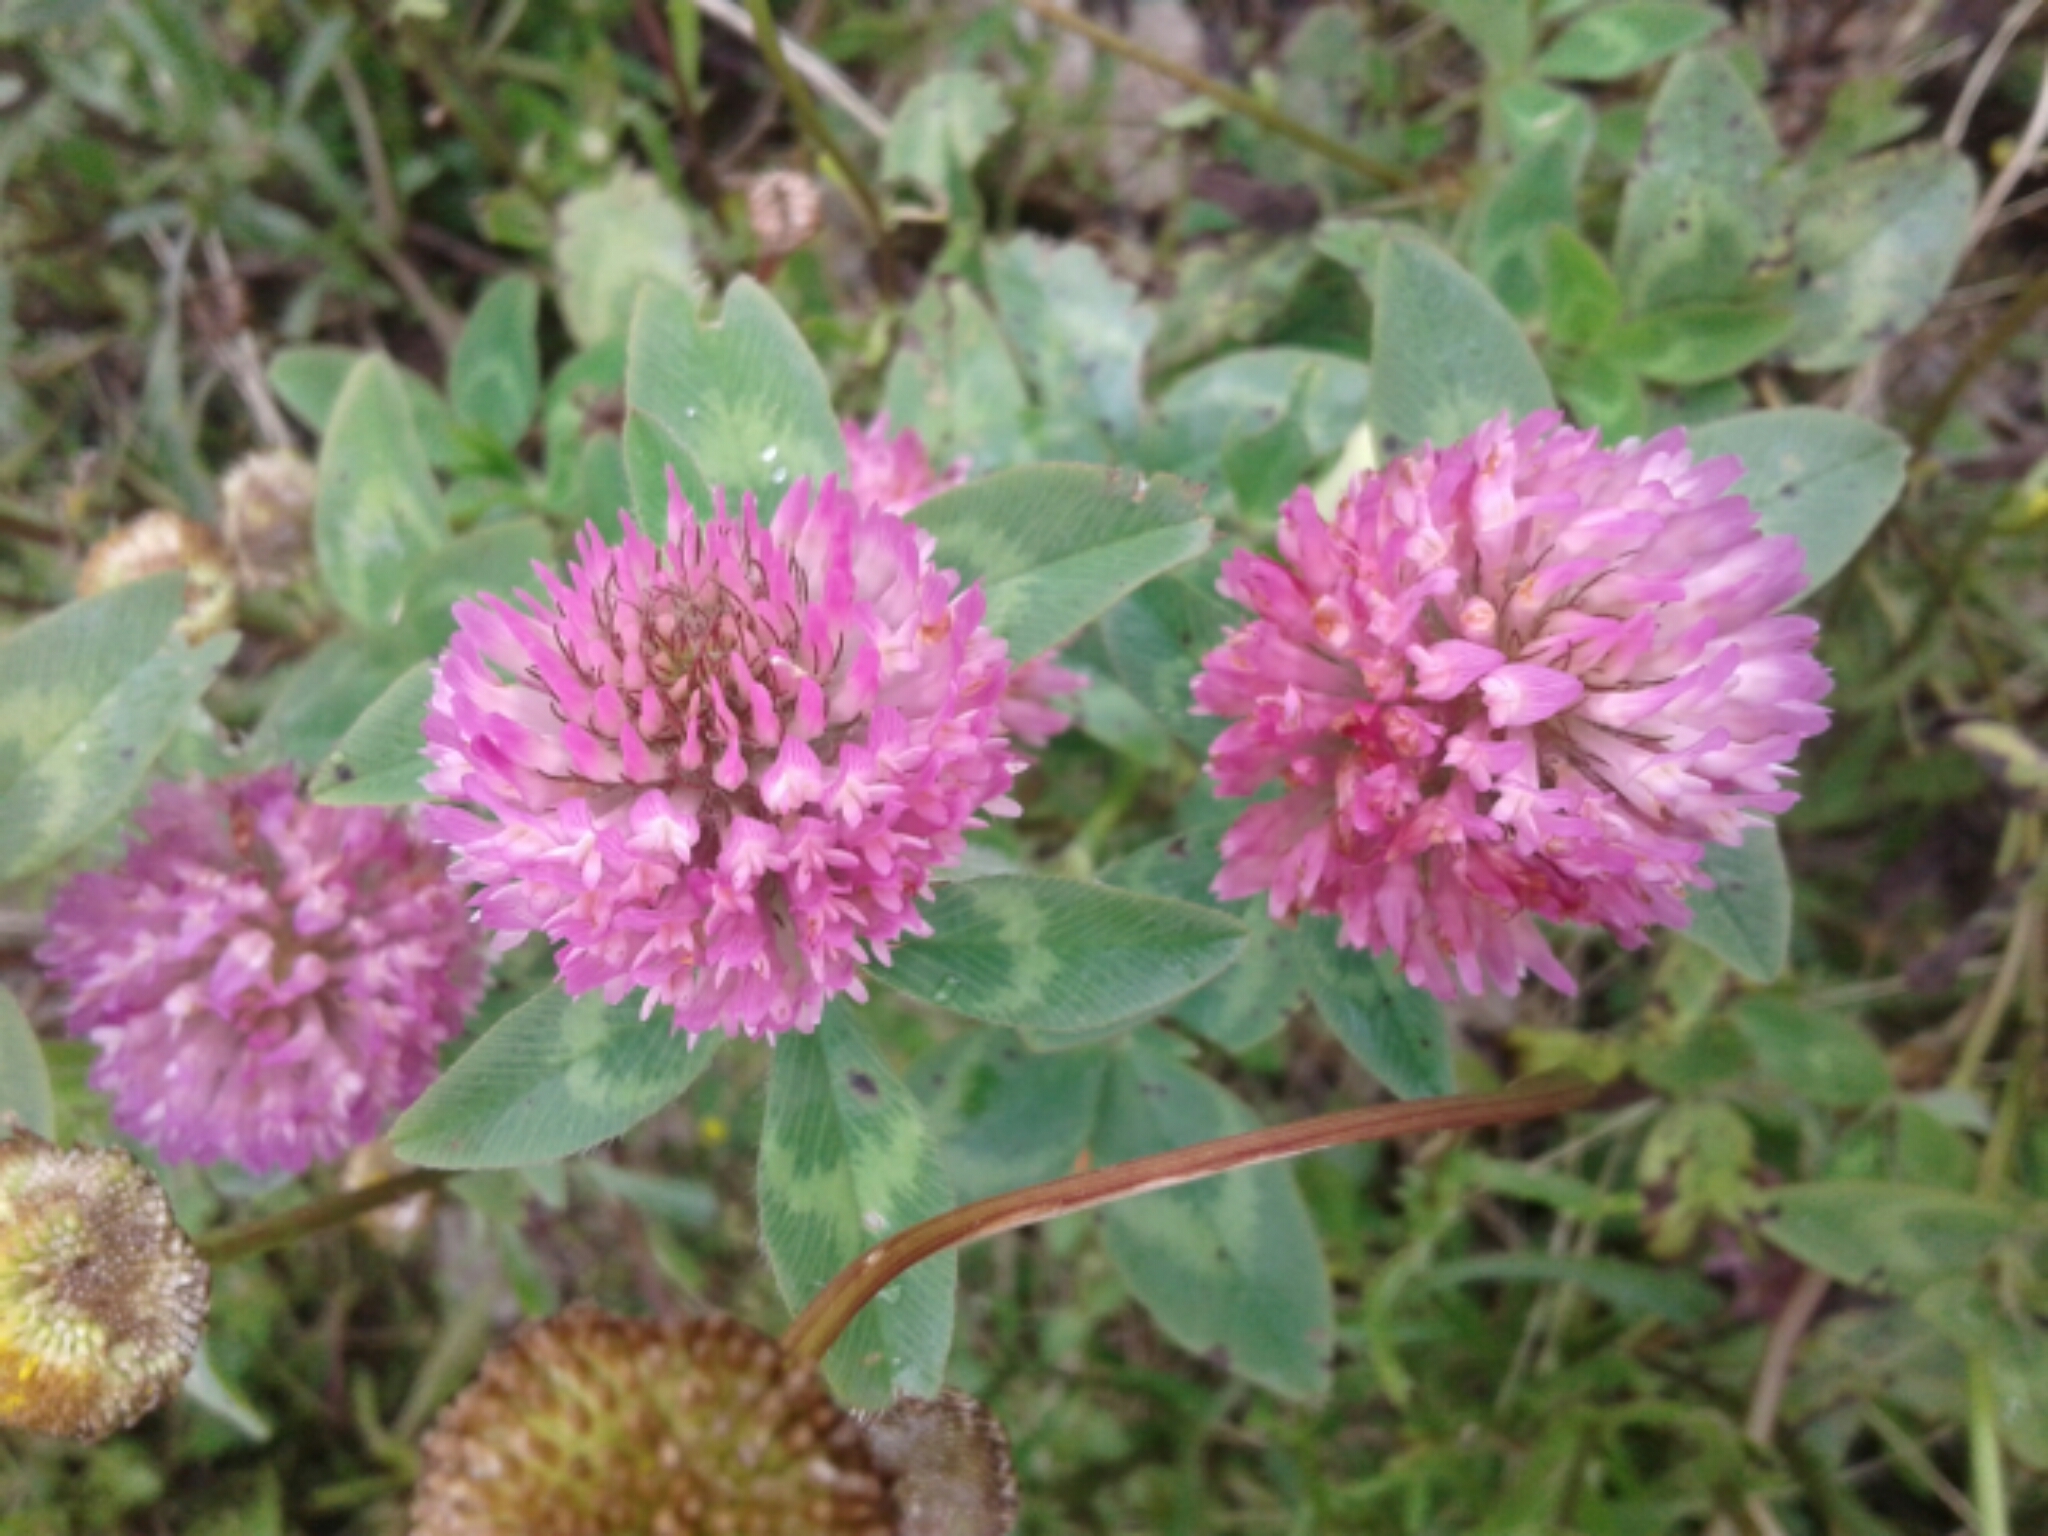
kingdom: Plantae
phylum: Tracheophyta
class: Magnoliopsida
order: Fabales
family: Fabaceae
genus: Trifolium
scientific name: Trifolium pratense
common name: Red clover
